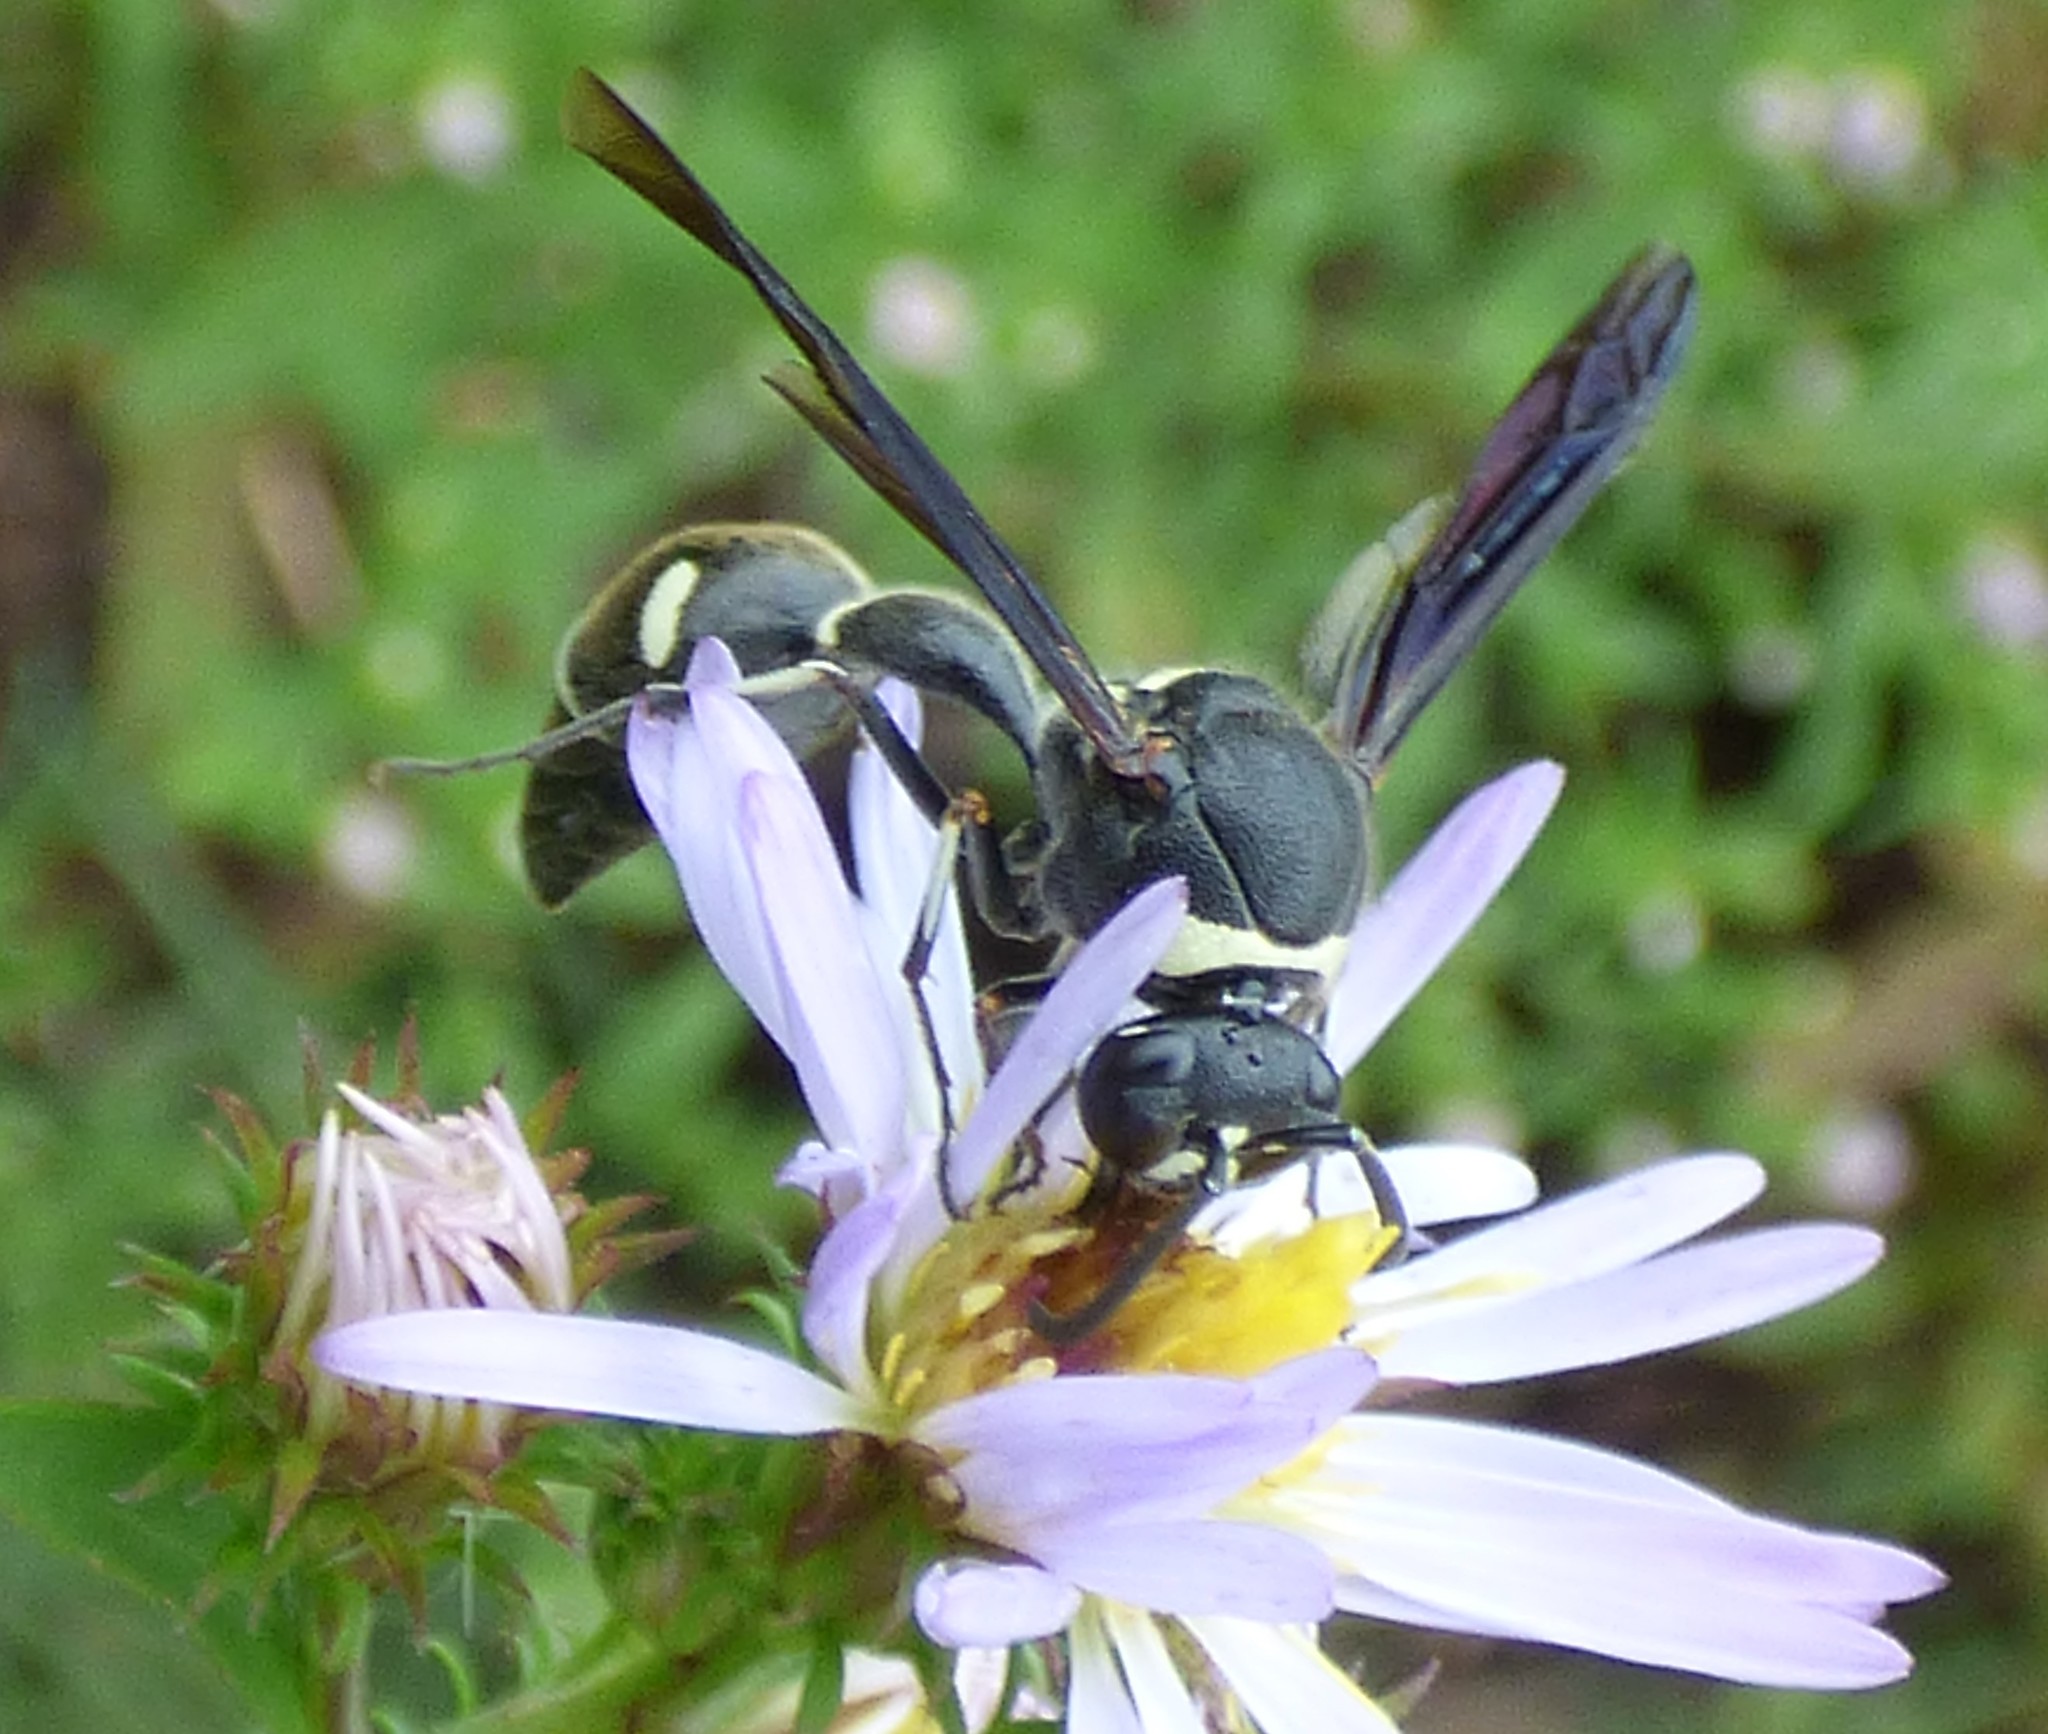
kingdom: Animalia
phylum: Arthropoda
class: Insecta
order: Hymenoptera
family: Vespidae
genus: Eumenes
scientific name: Eumenes fraternus
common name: Fraternal potter wasp
